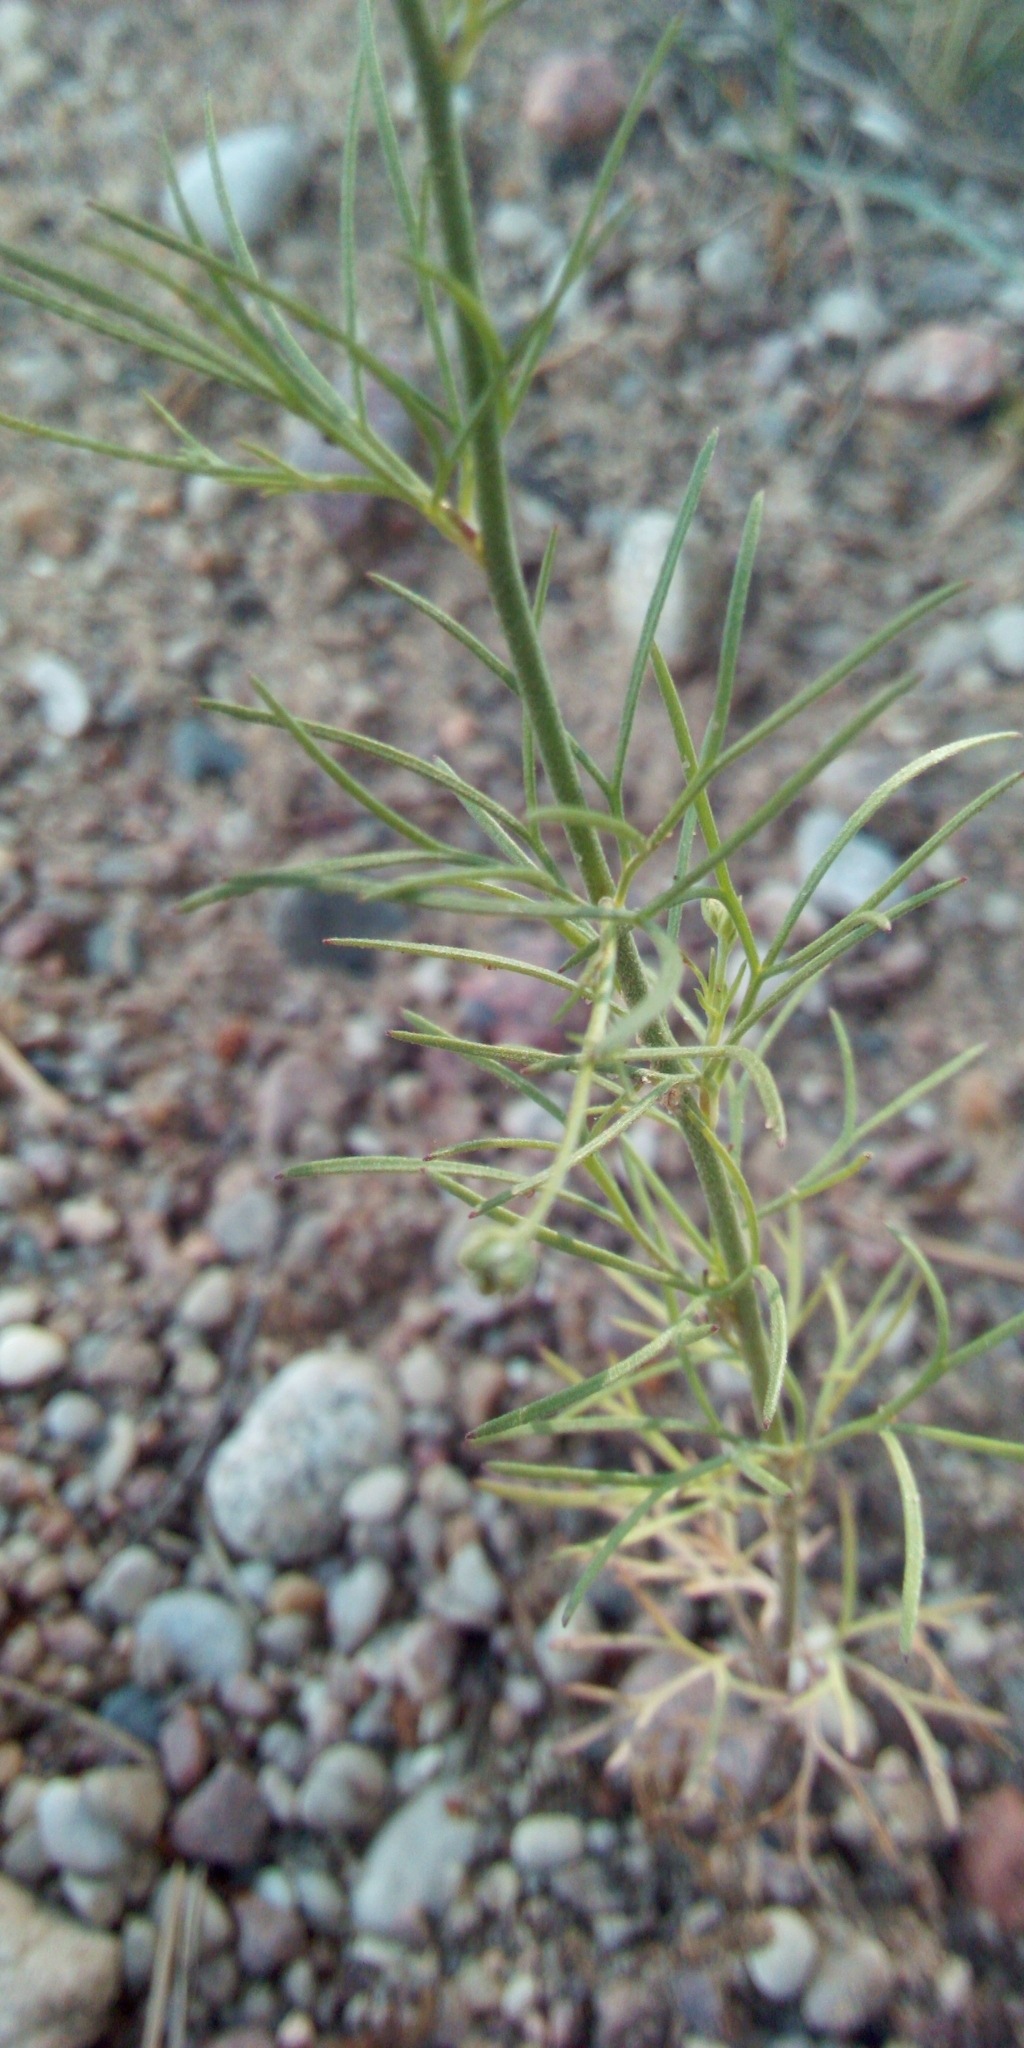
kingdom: Plantae
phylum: Tracheophyta
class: Magnoliopsida
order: Ranunculales
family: Ranunculaceae
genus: Delphinium
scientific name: Delphinium consolida
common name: Branching larkspur
